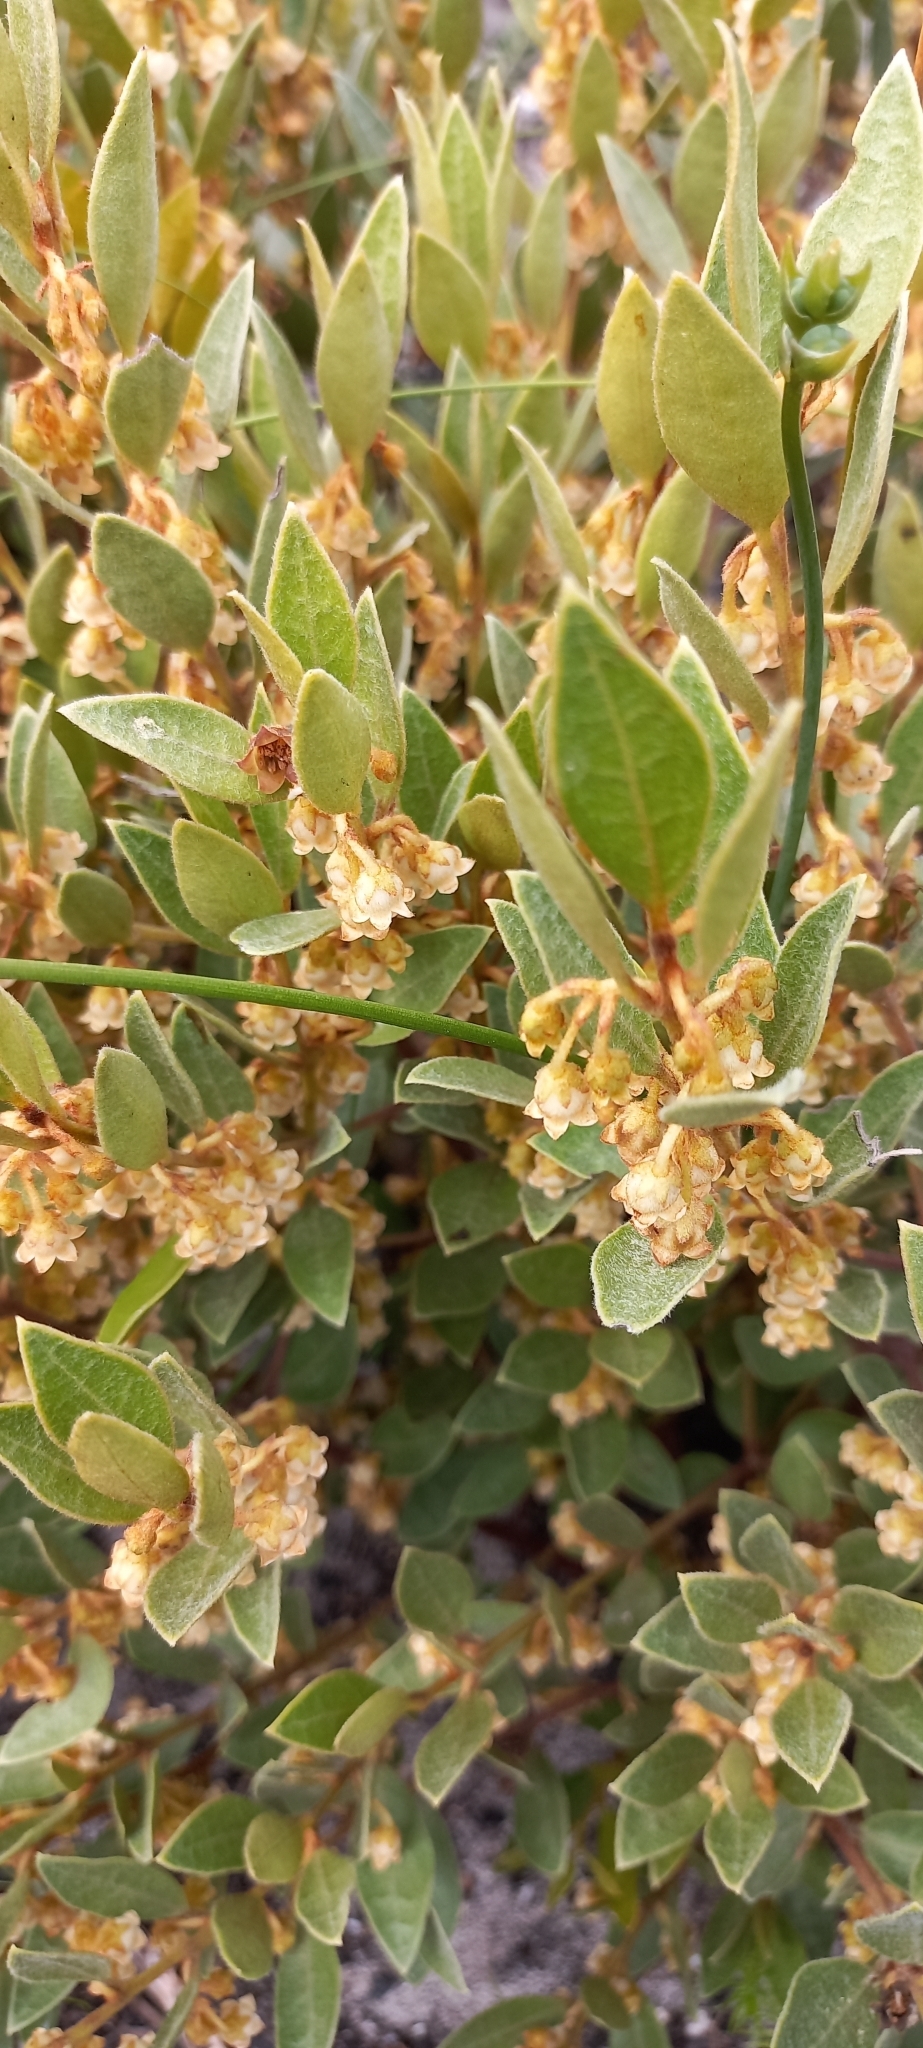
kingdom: Plantae
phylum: Tracheophyta
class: Magnoliopsida
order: Ericales
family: Ebenaceae
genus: Euclea
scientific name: Euclea polyandra
